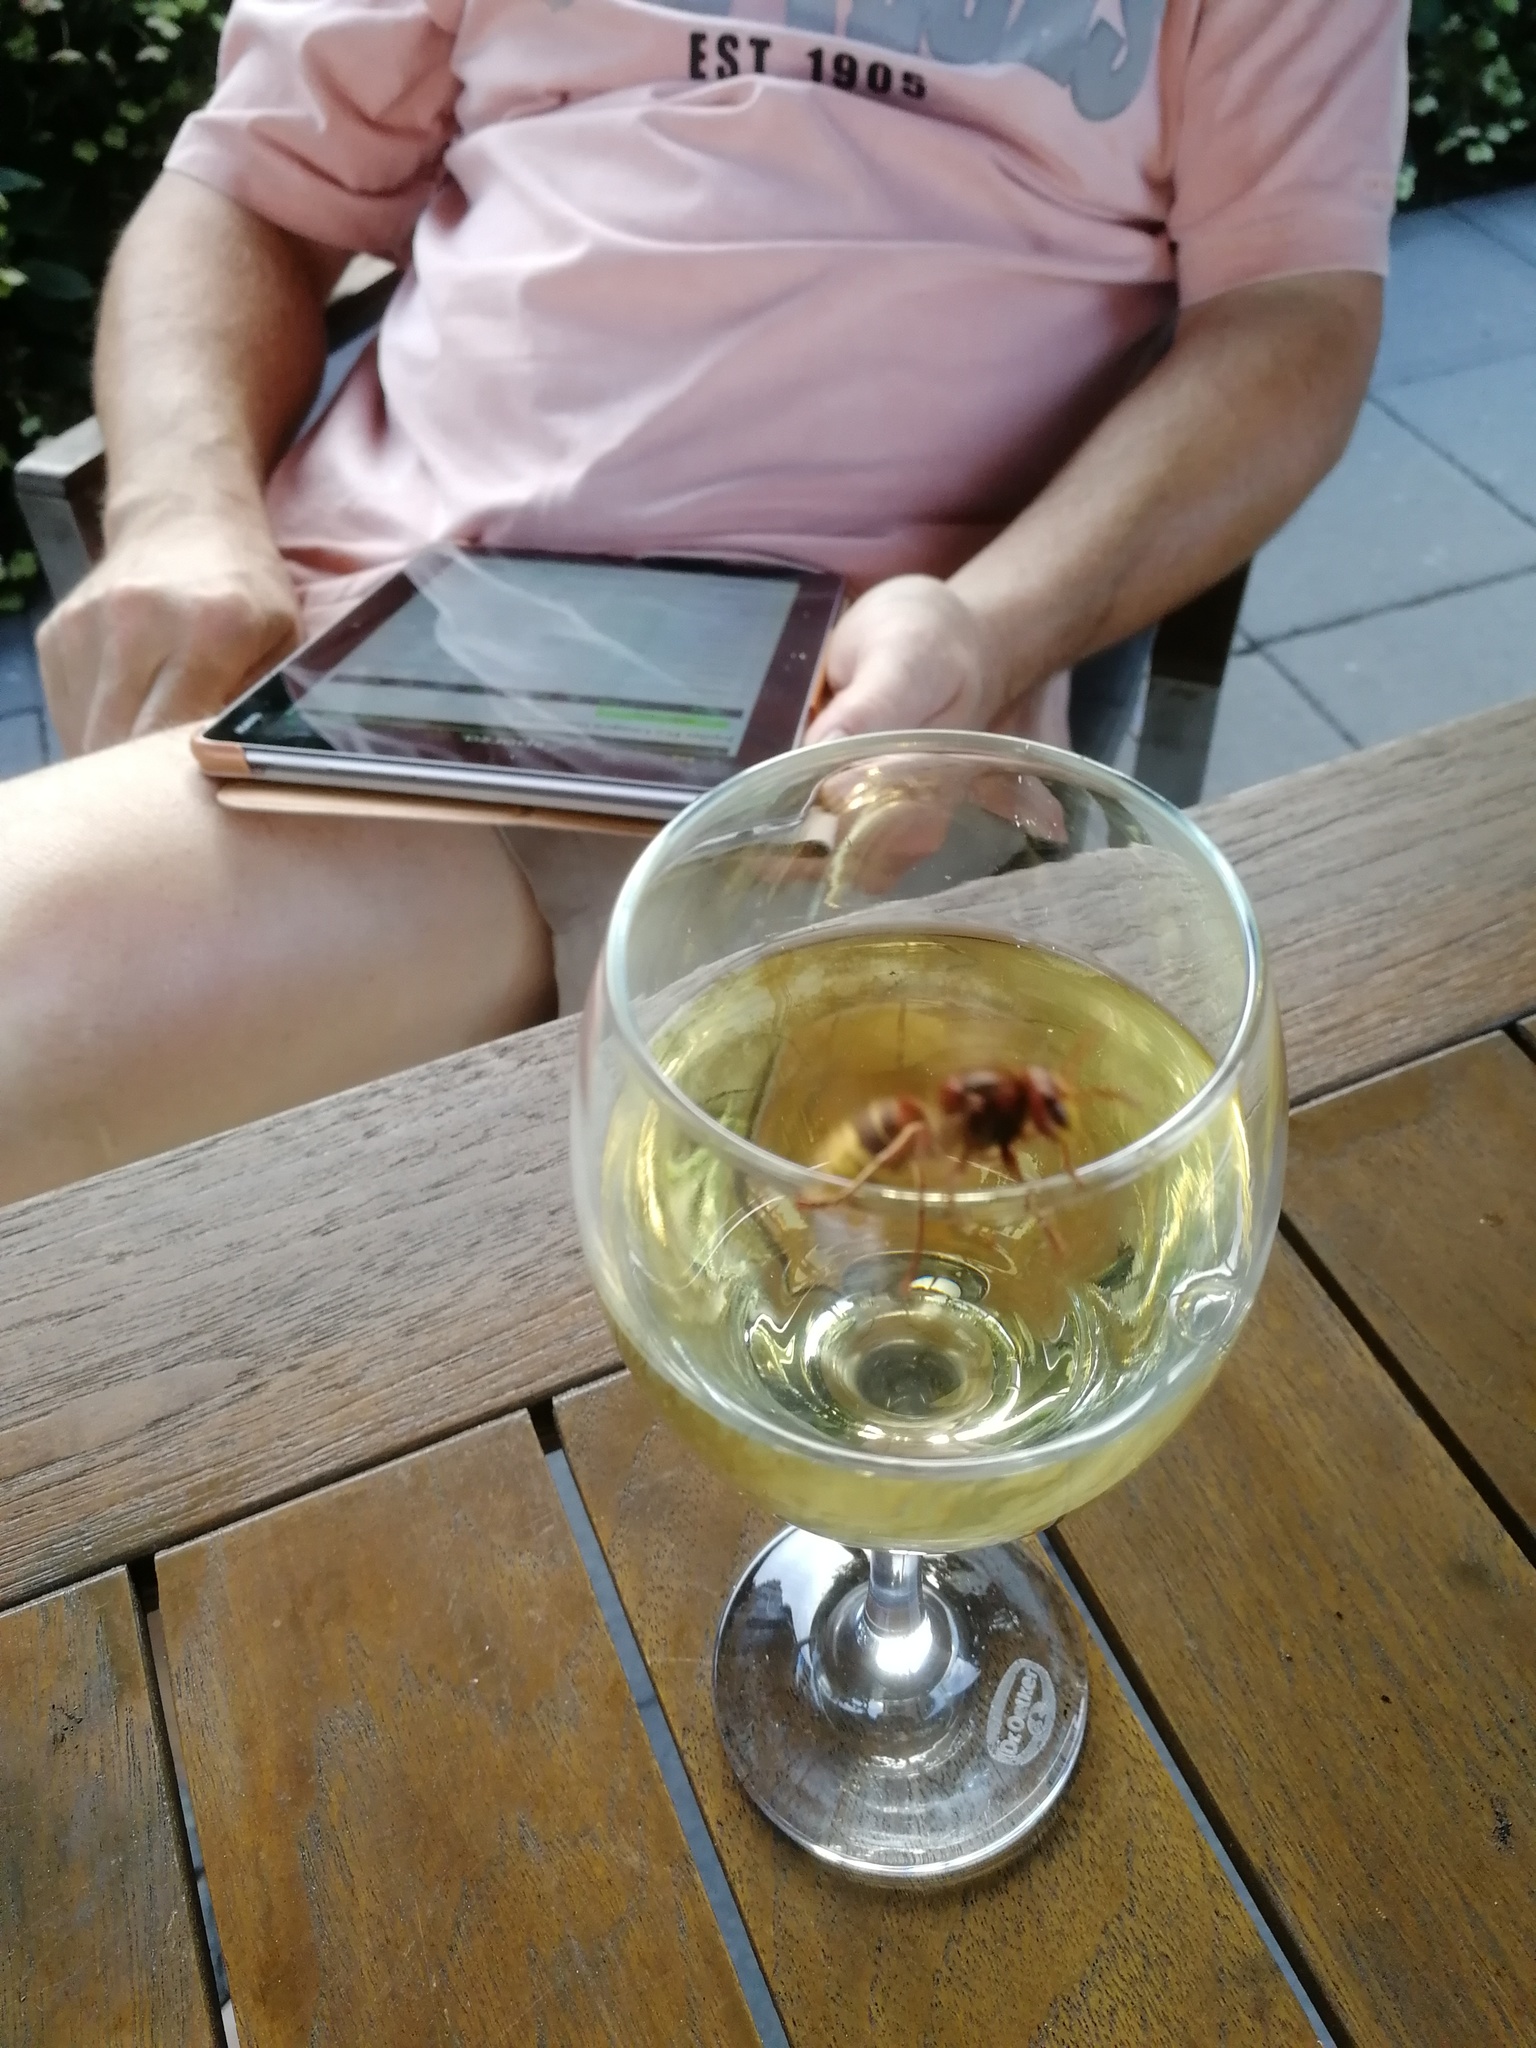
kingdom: Animalia
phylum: Arthropoda
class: Insecta
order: Hymenoptera
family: Vespidae
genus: Vespa
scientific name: Vespa crabro
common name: Hornet
